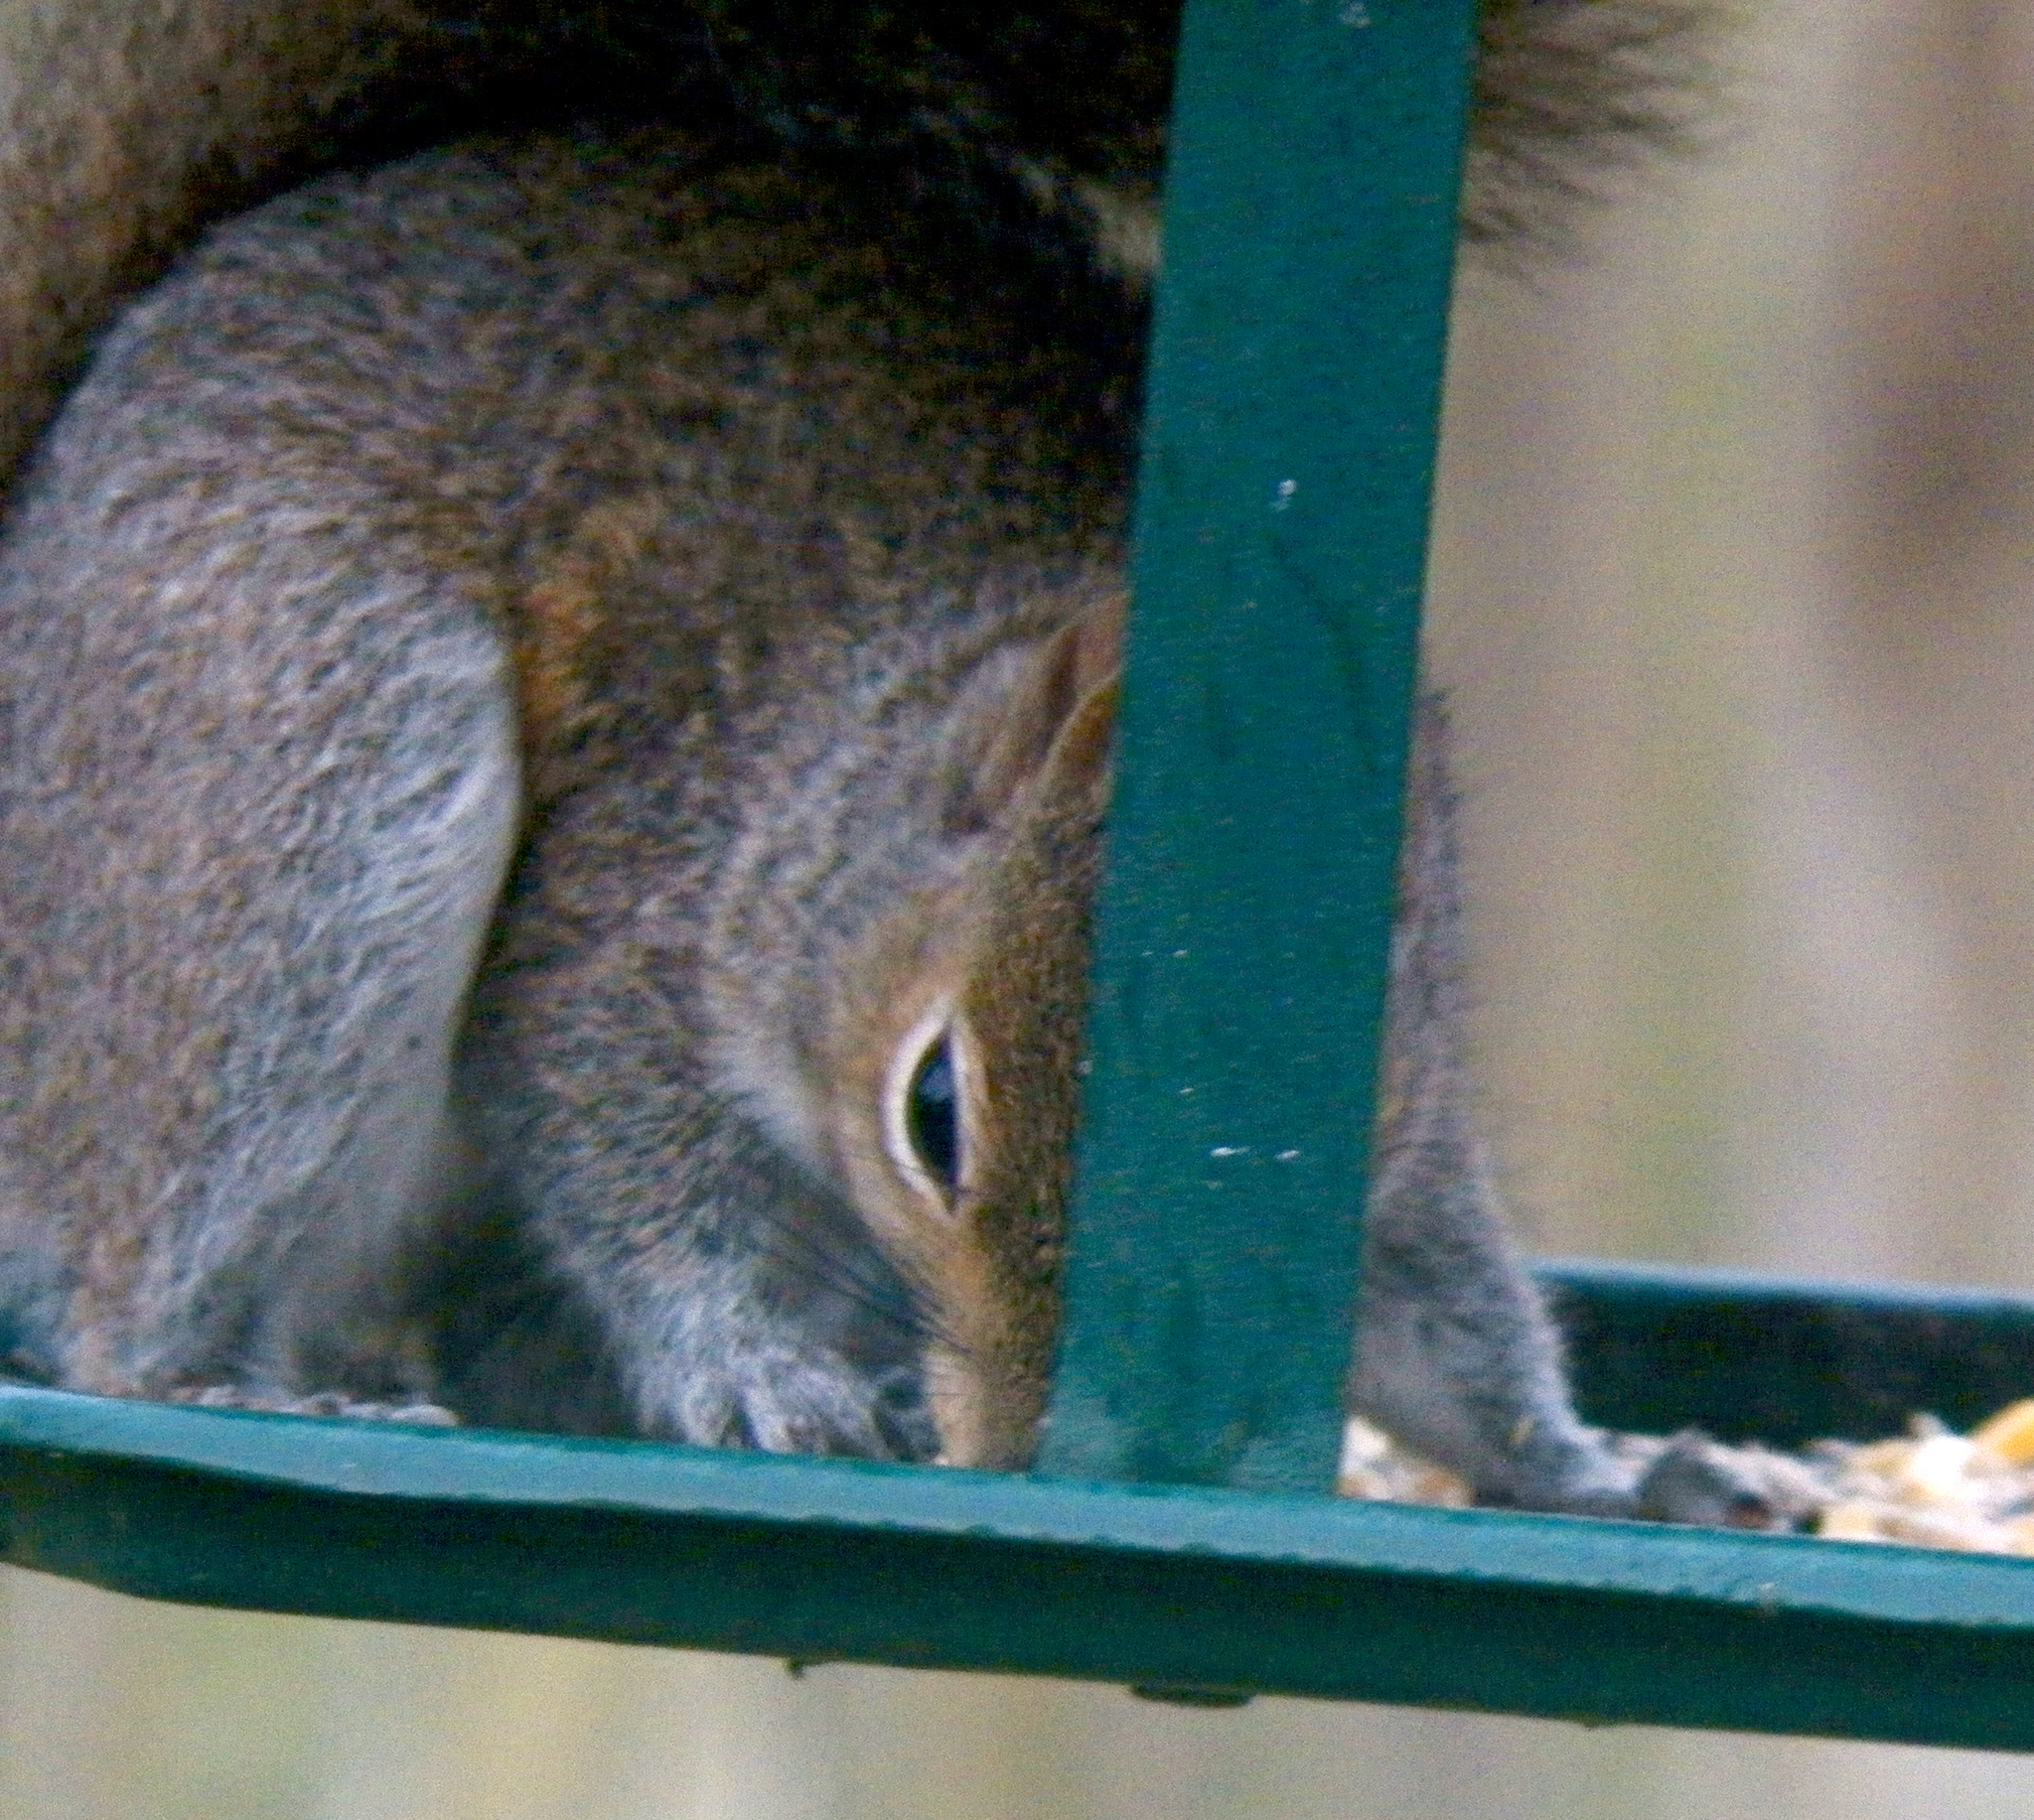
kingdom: Animalia
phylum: Chordata
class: Mammalia
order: Rodentia
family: Sciuridae
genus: Sciurus
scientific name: Sciurus carolinensis
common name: Eastern gray squirrel
